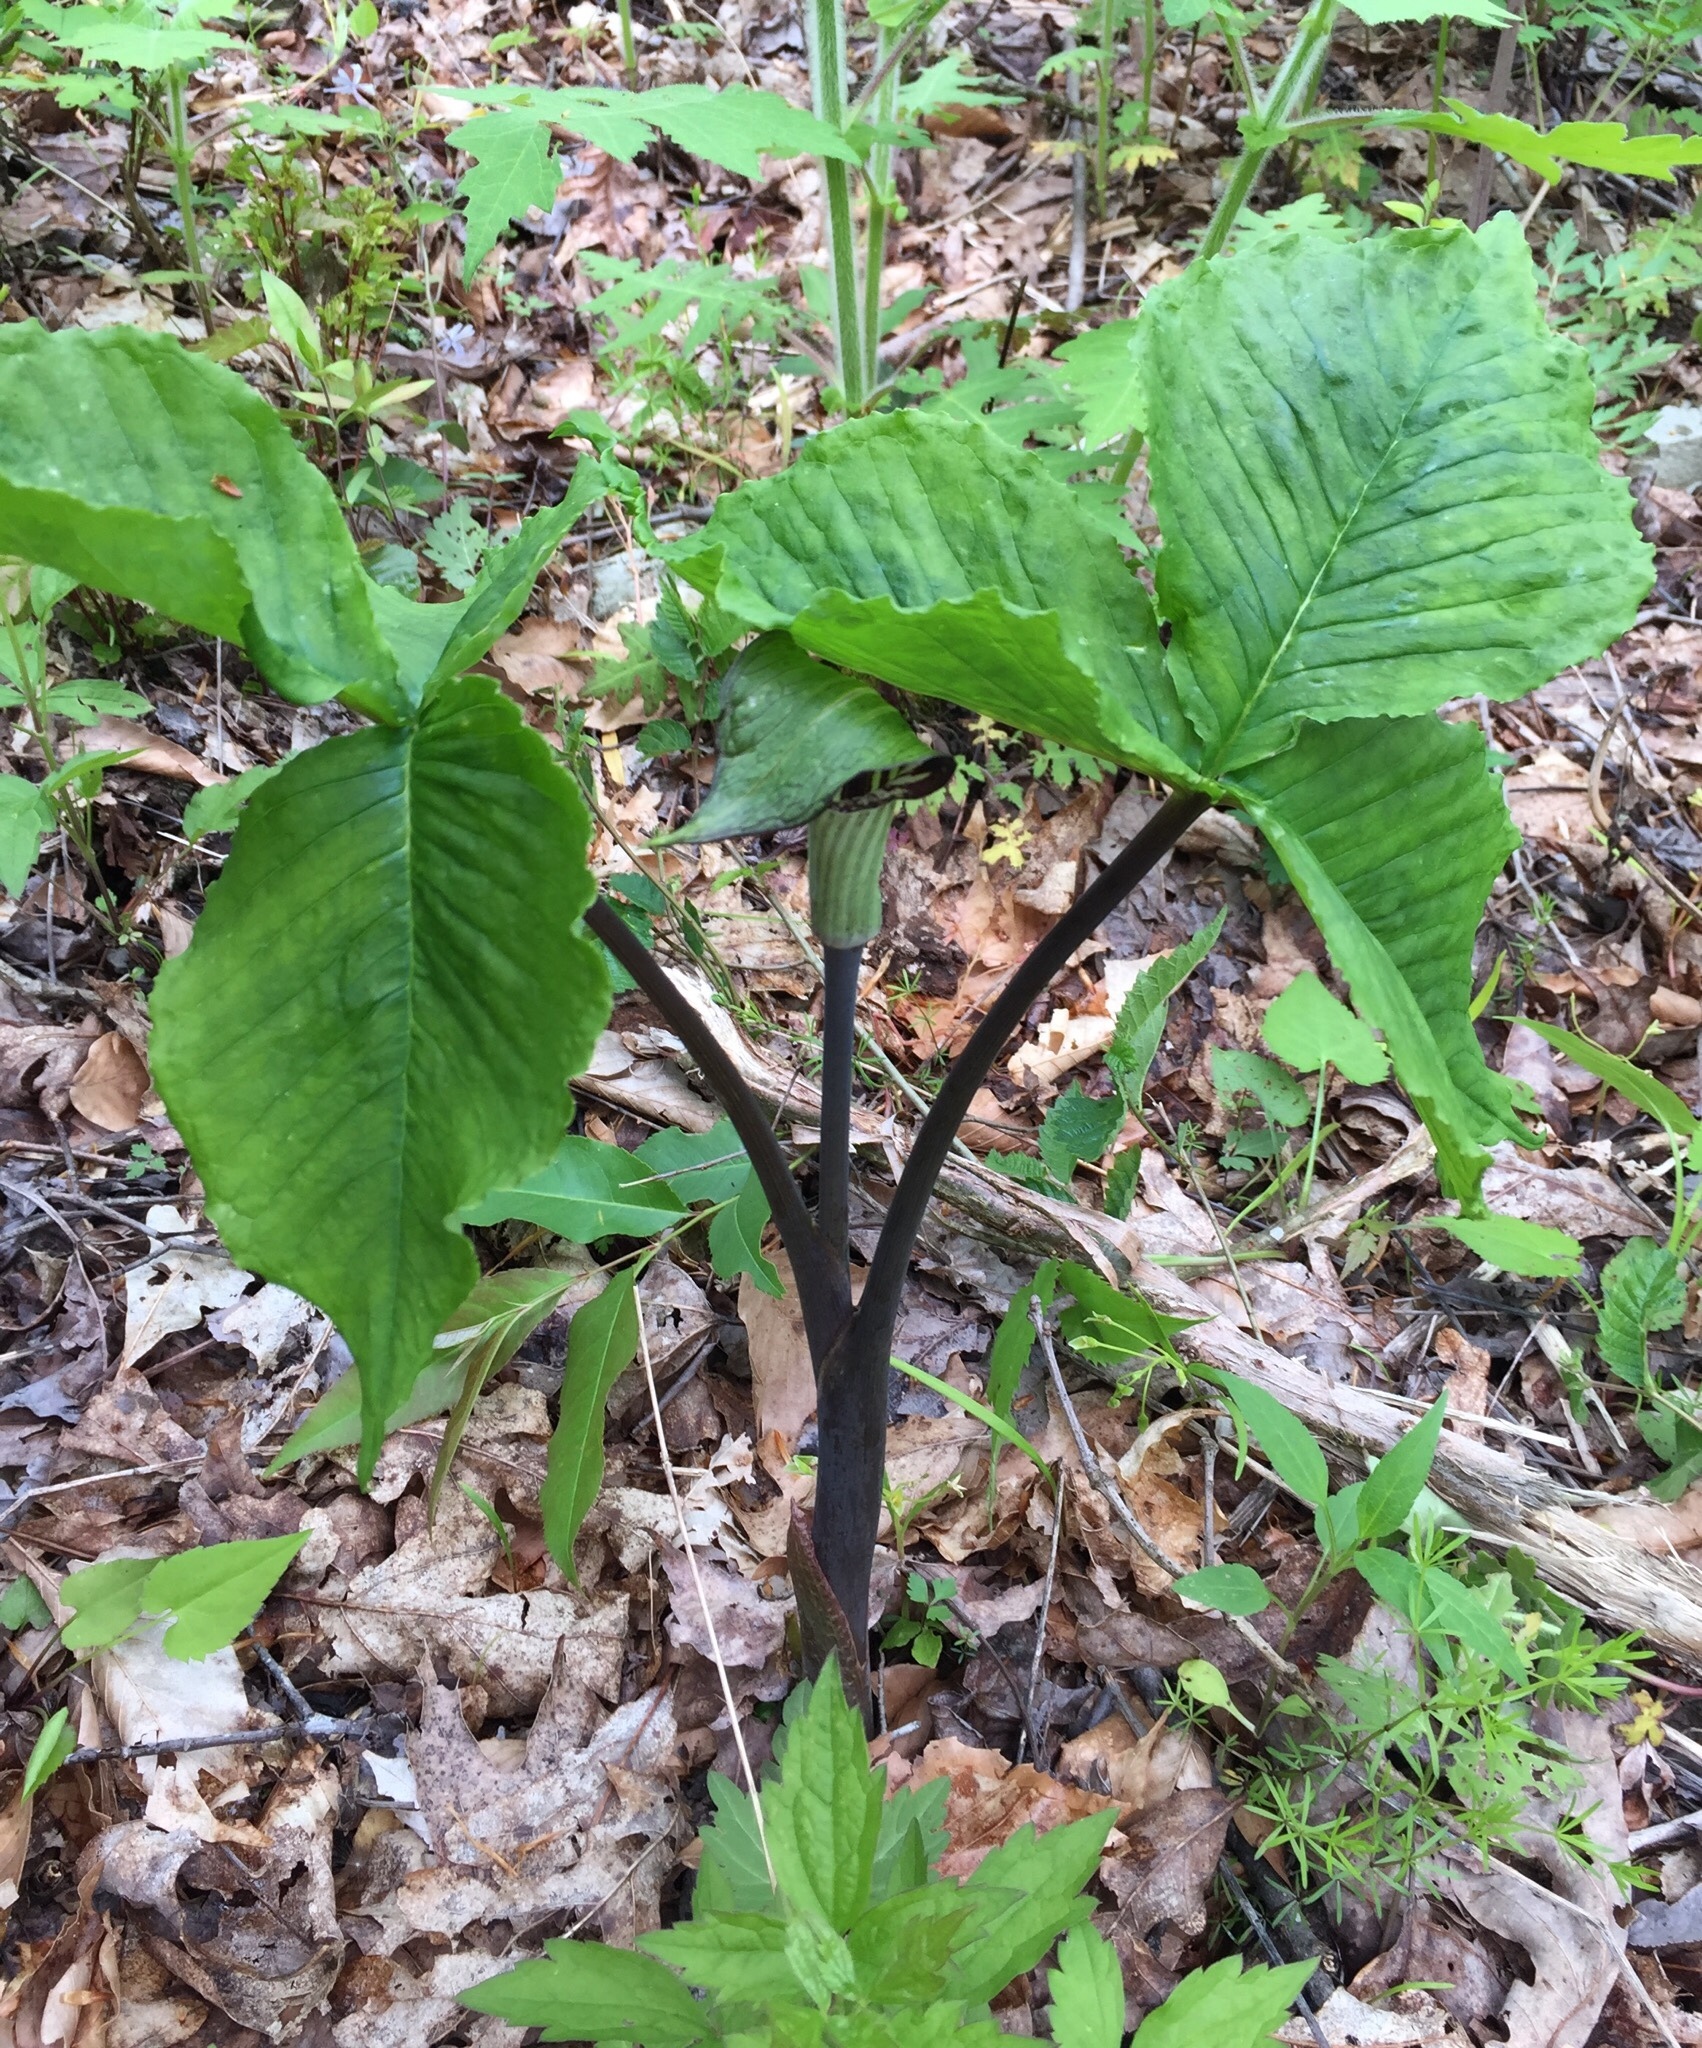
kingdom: Plantae
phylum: Tracheophyta
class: Liliopsida
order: Alismatales
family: Araceae
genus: Arisaema
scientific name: Arisaema triphyllum
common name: Jack-in-the-pulpit
